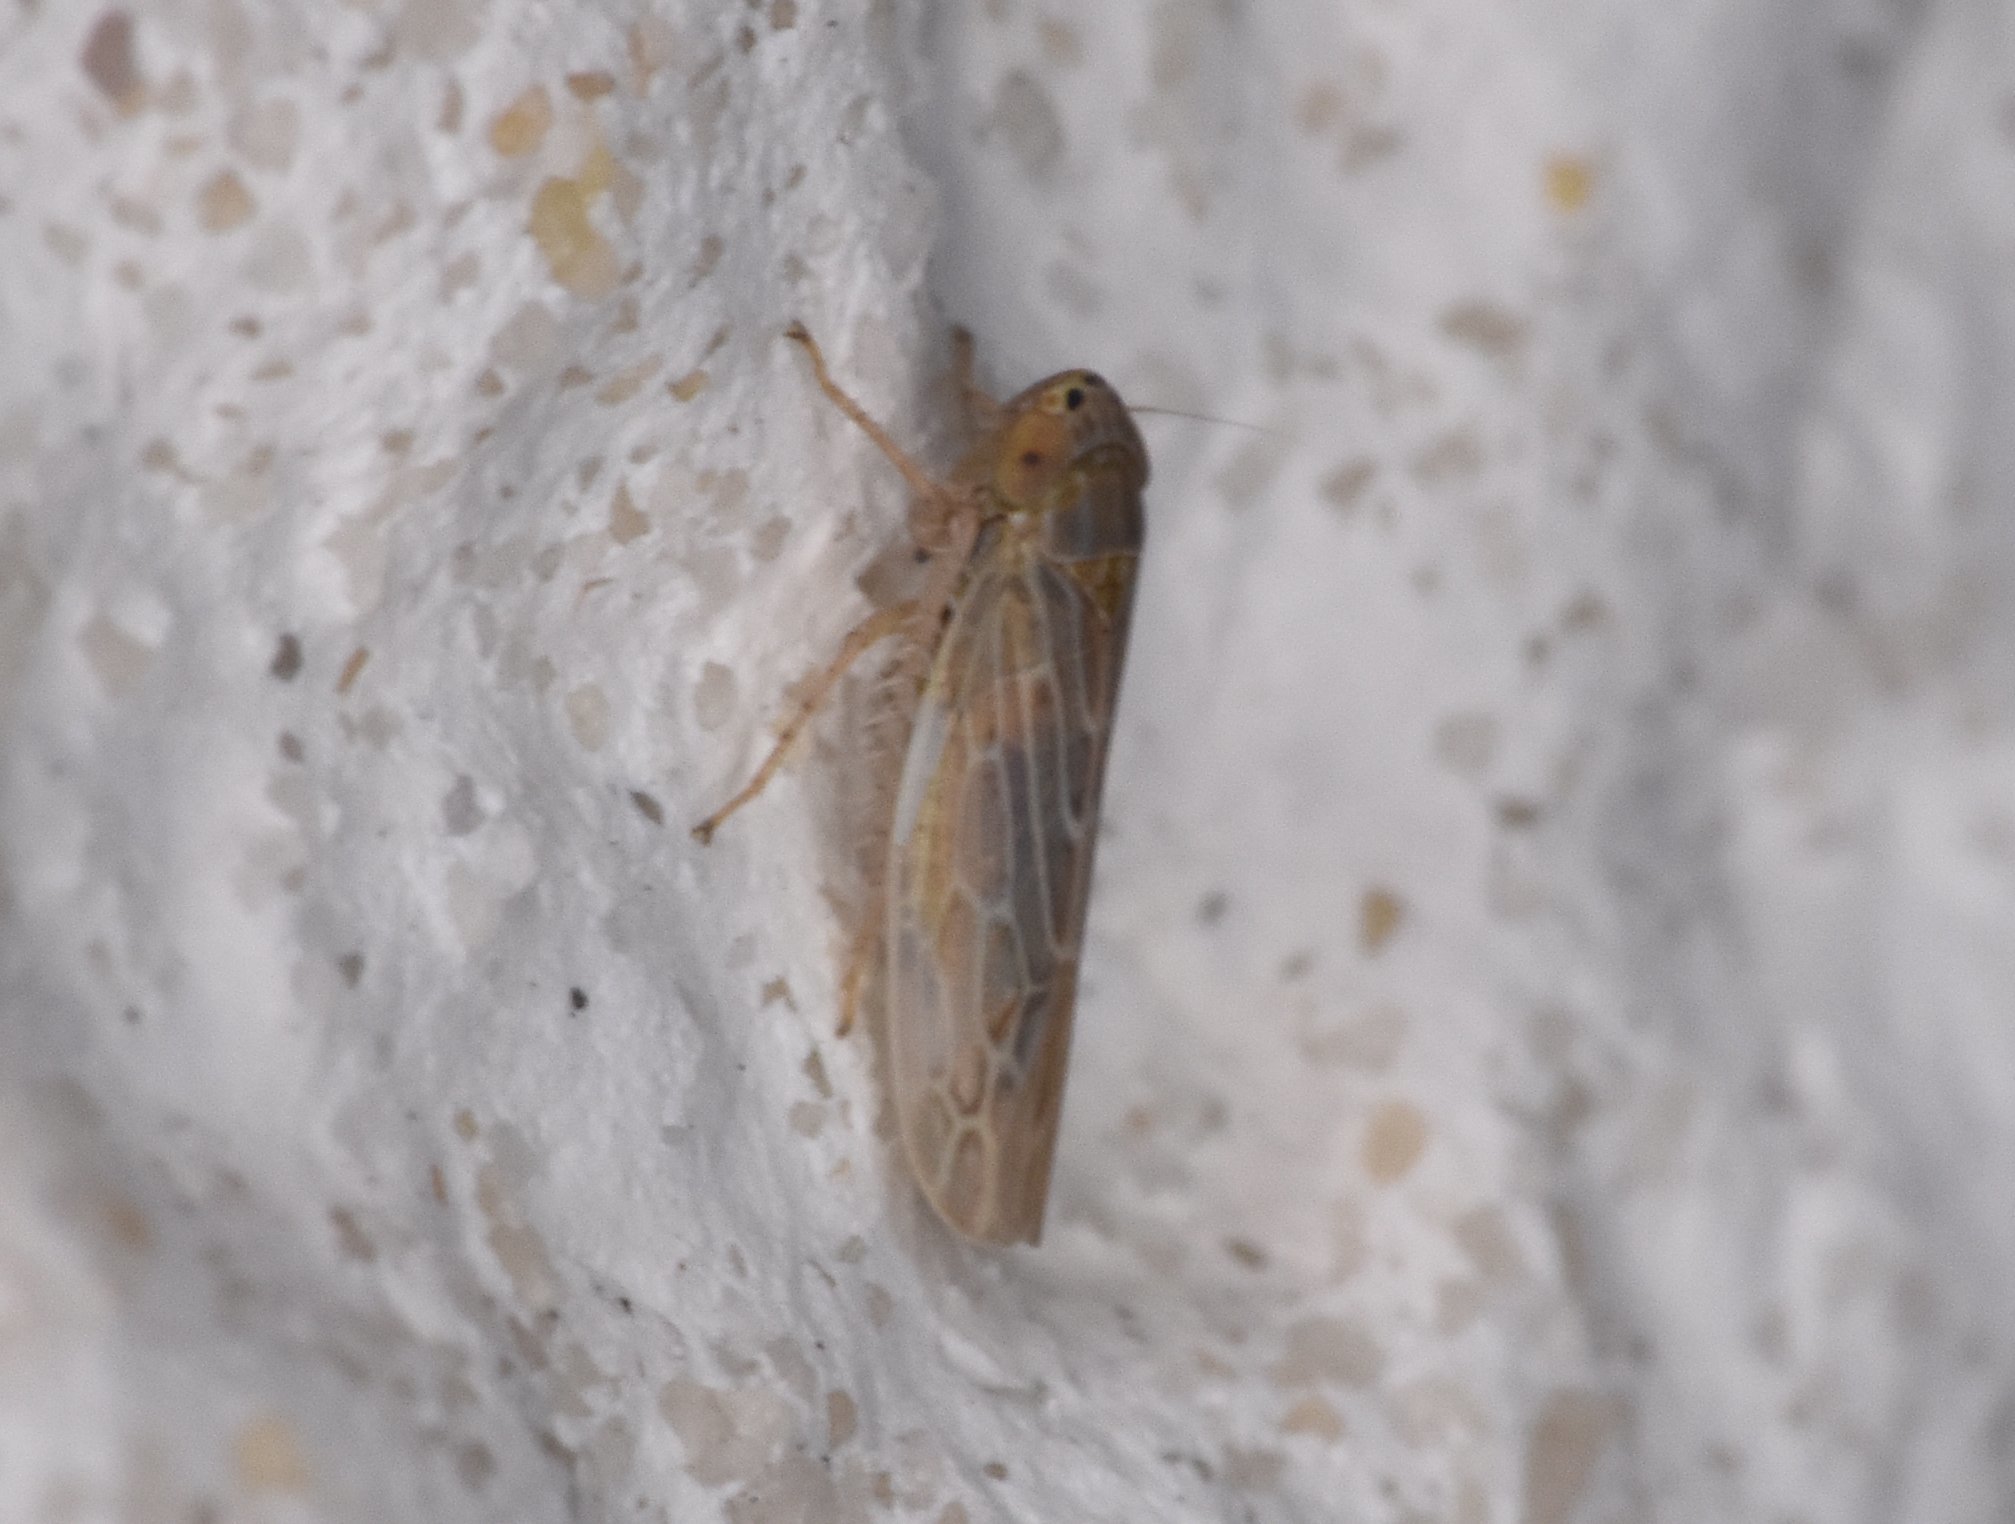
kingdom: Animalia
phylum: Arthropoda
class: Insecta
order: Hemiptera
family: Cicadellidae
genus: Graminella
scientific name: Graminella sonora
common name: Lesser lawn leafhopper
